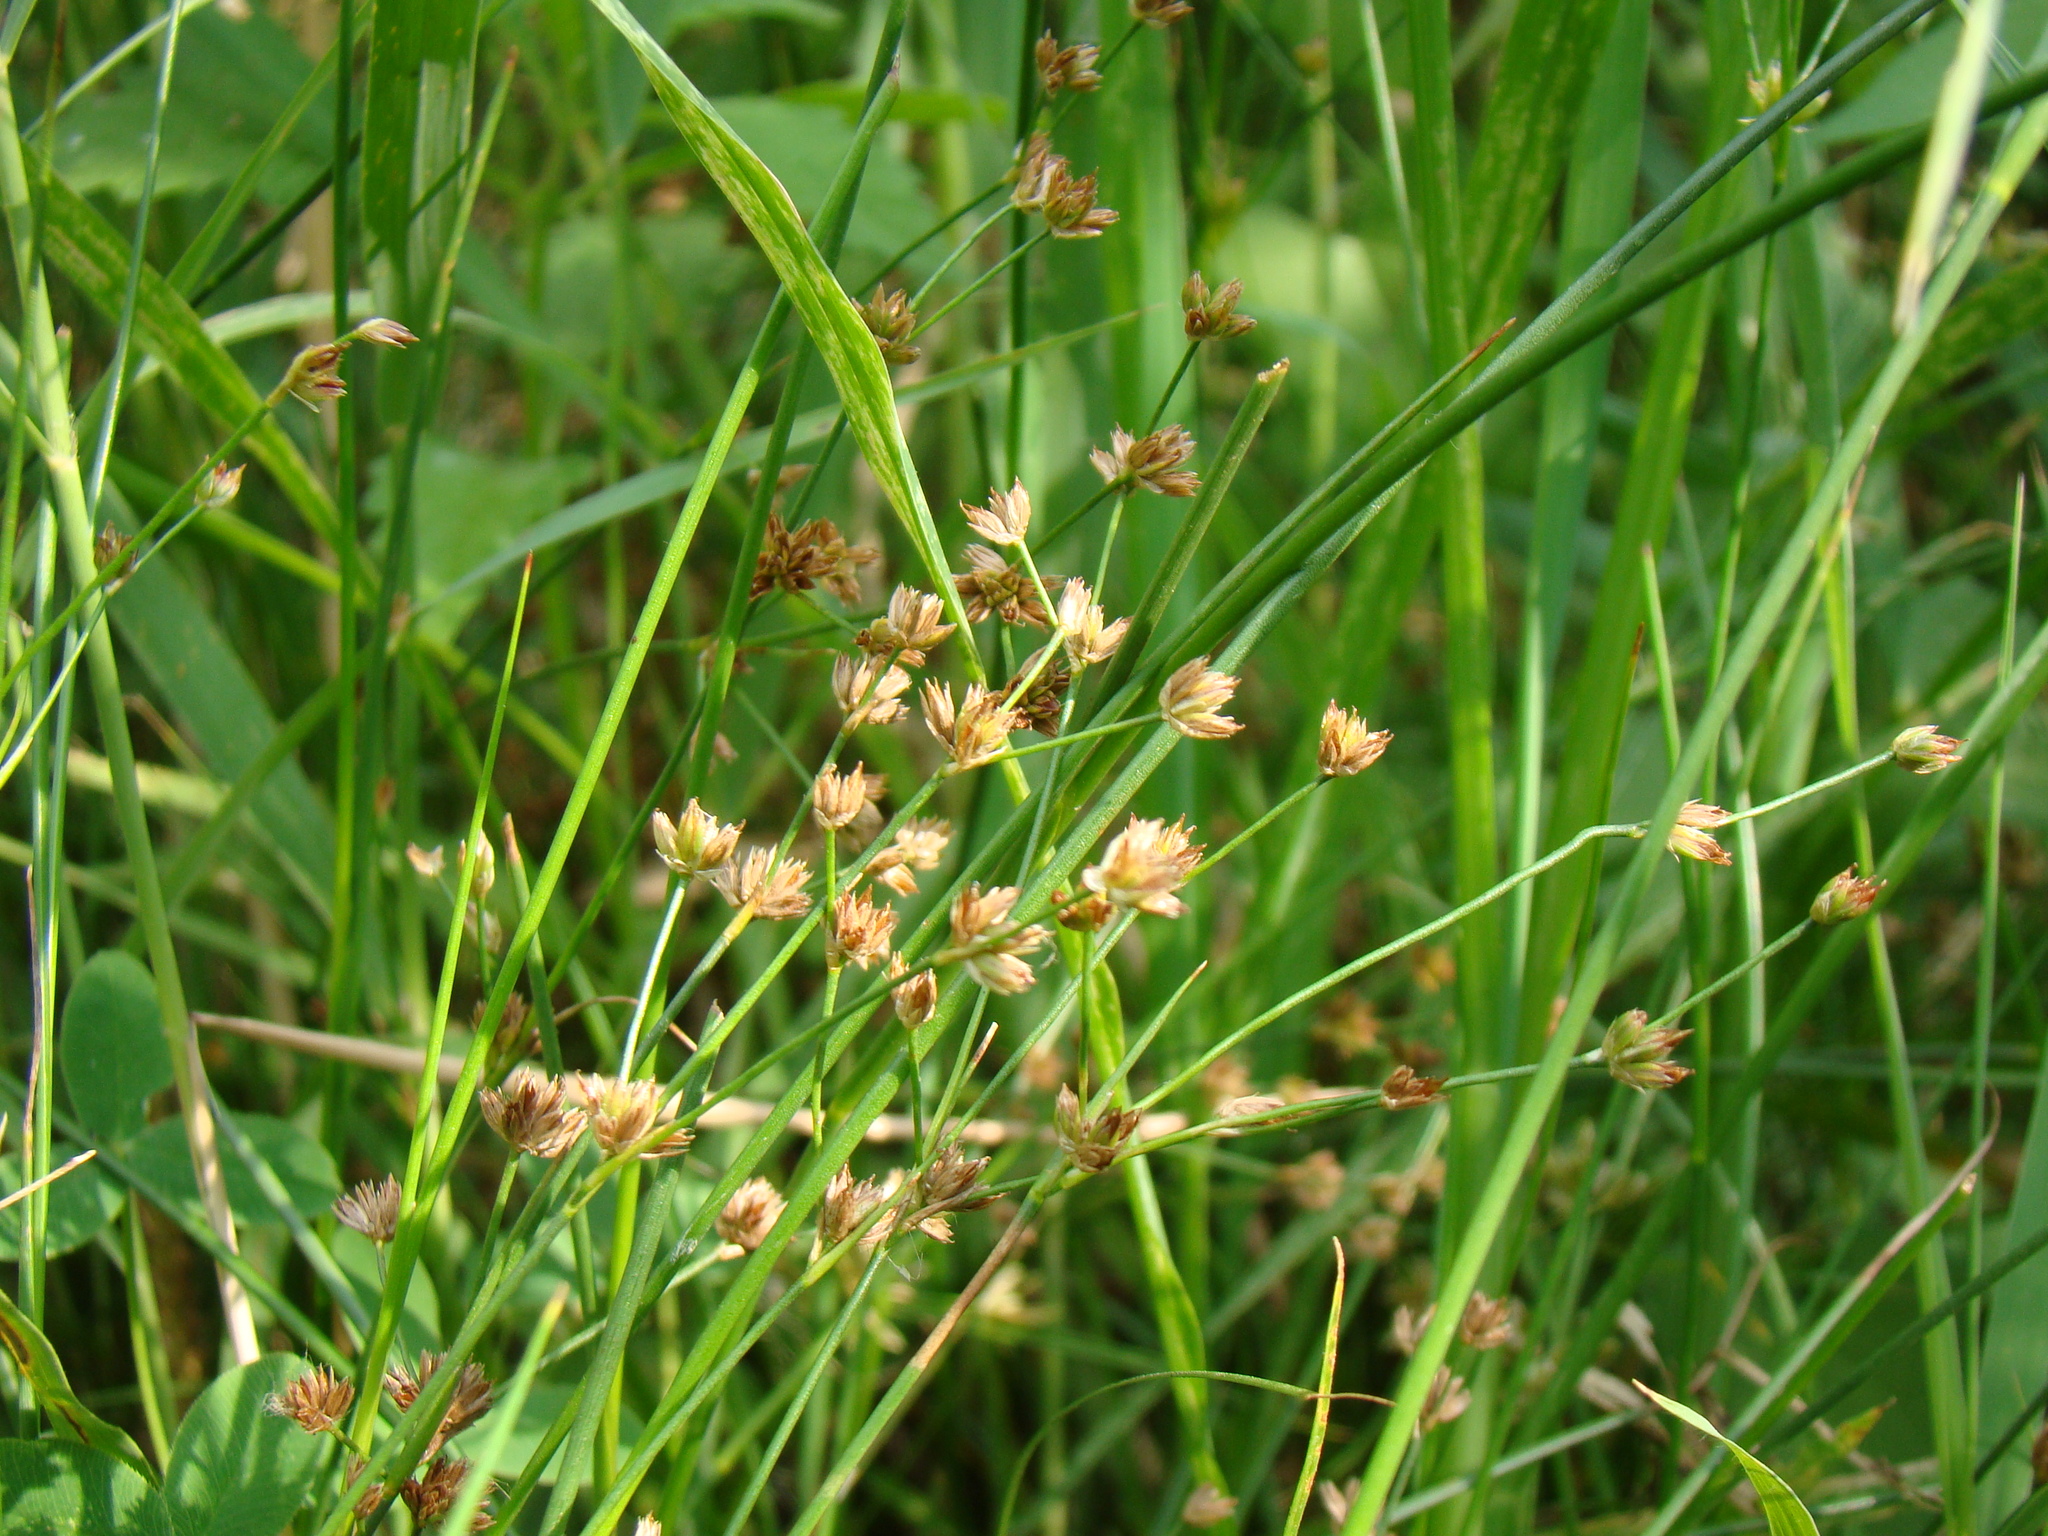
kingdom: Plantae
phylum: Tracheophyta
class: Liliopsida
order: Poales
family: Juncaceae
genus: Juncus
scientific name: Juncus articulatus
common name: Jointed rush
